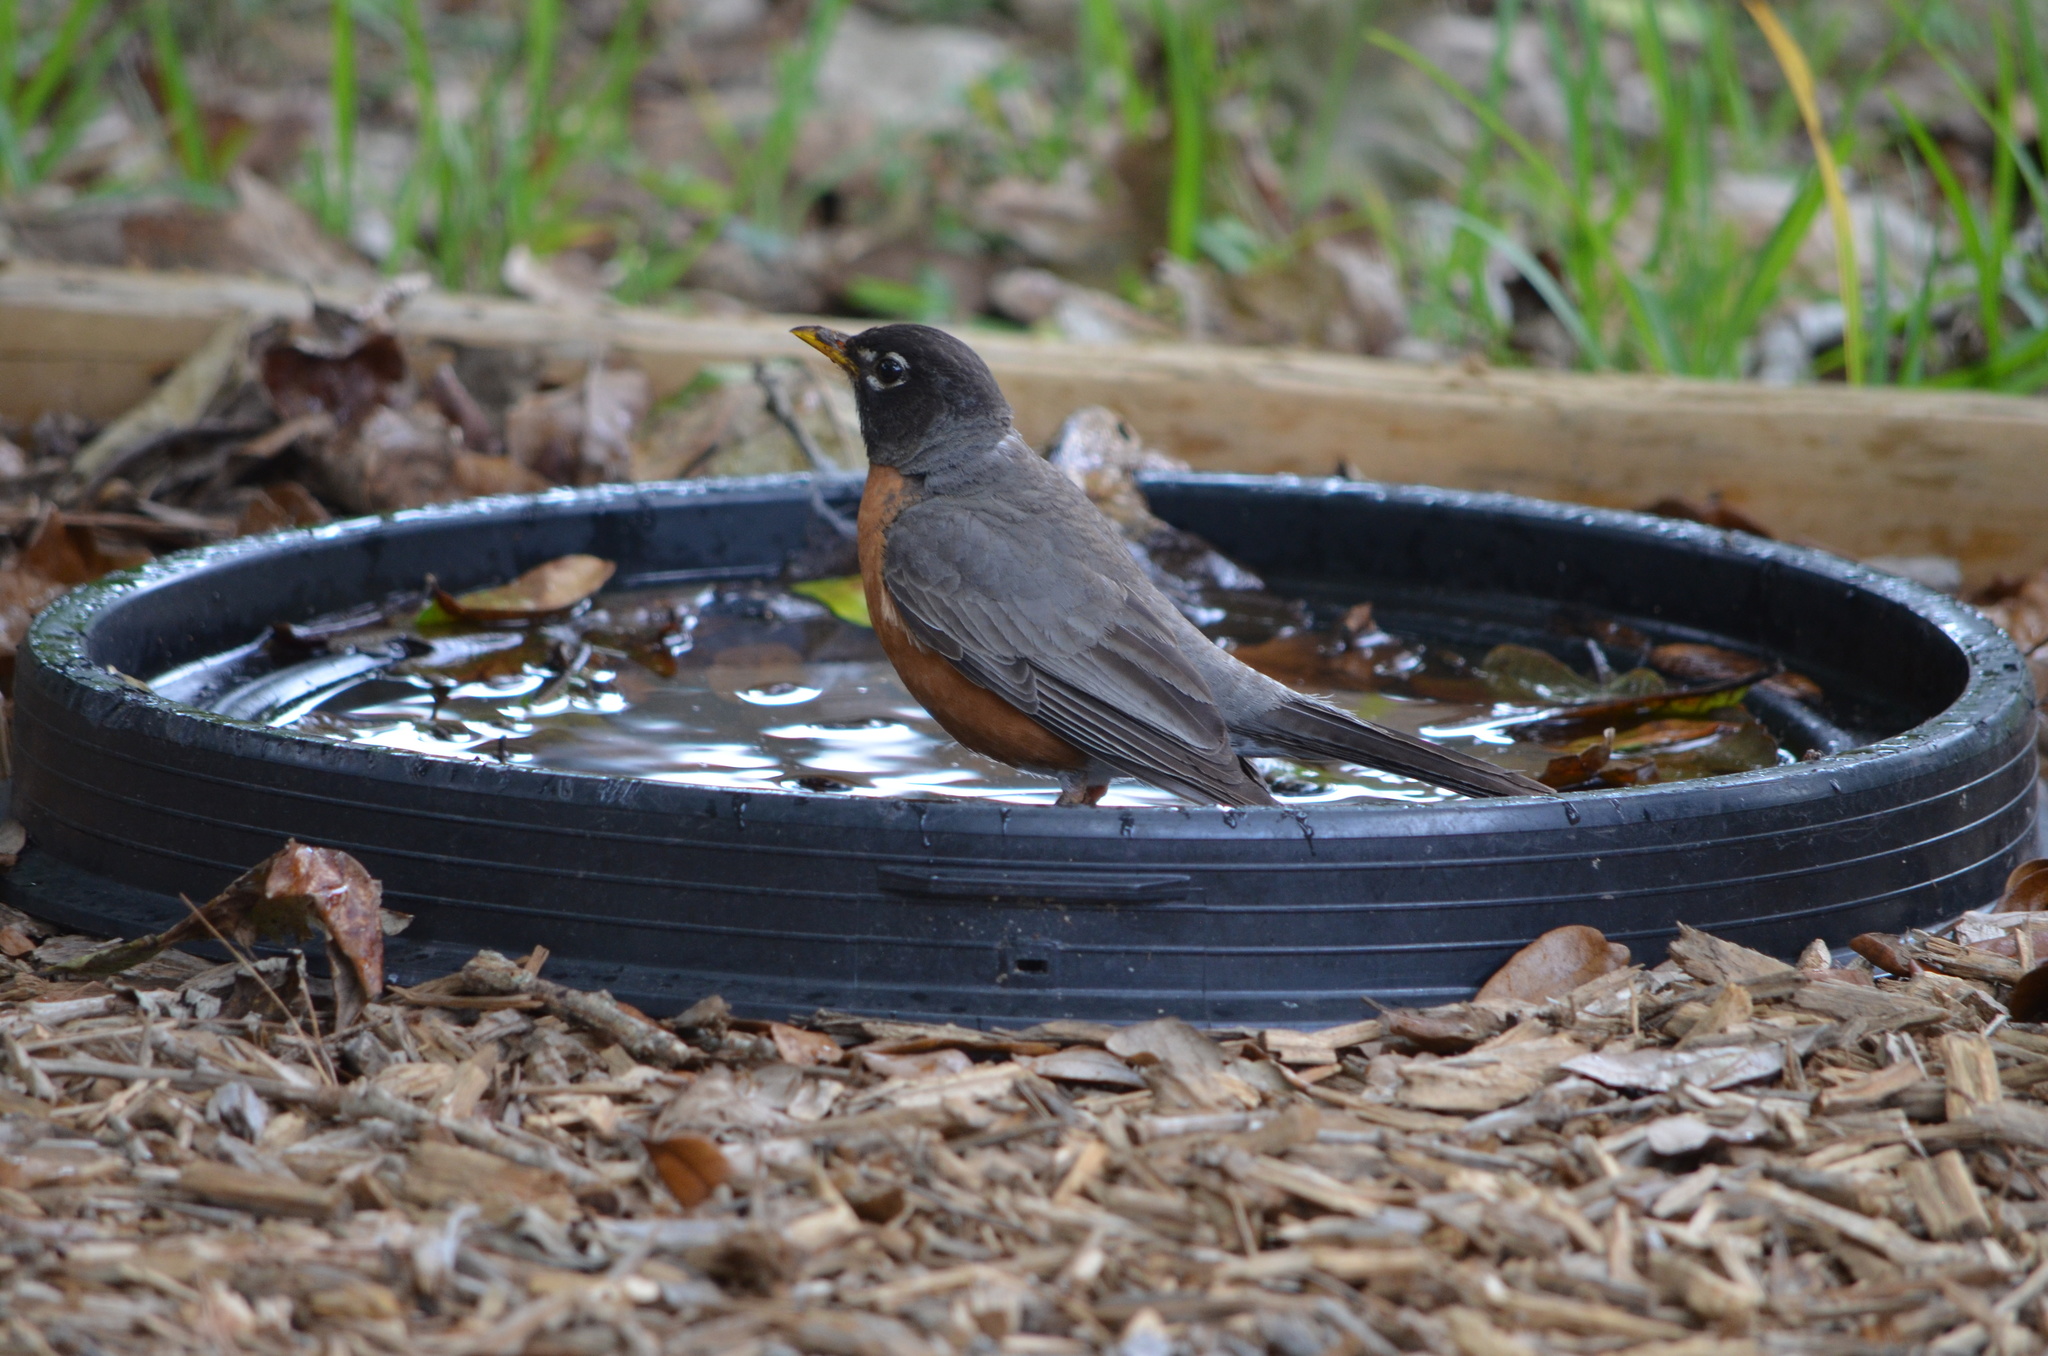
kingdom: Animalia
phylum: Chordata
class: Aves
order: Passeriformes
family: Turdidae
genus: Turdus
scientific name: Turdus migratorius
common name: American robin
